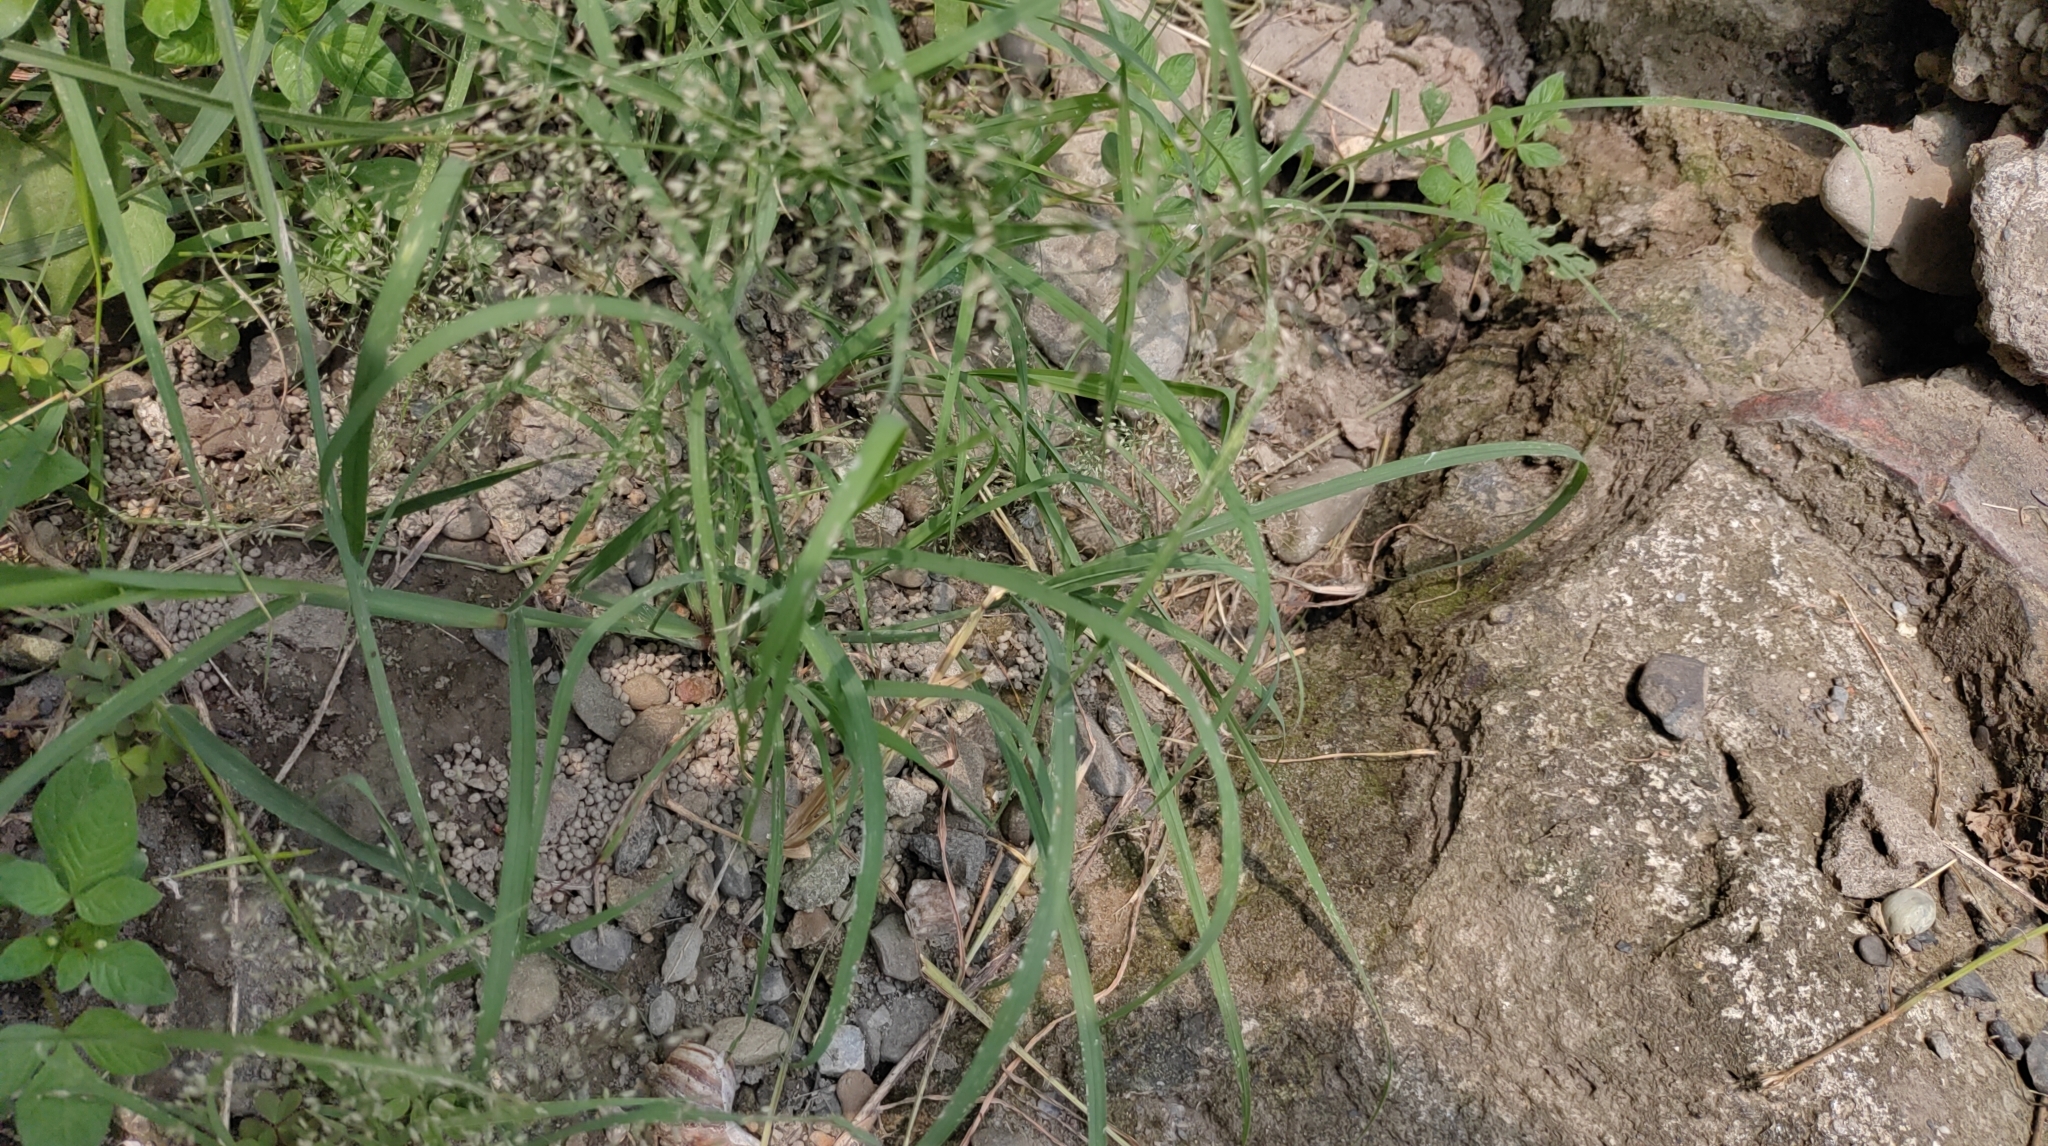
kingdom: Plantae
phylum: Tracheophyta
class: Liliopsida
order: Poales
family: Poaceae
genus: Eragrostis
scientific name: Eragrostis tenella
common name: Japanese lovegrass
